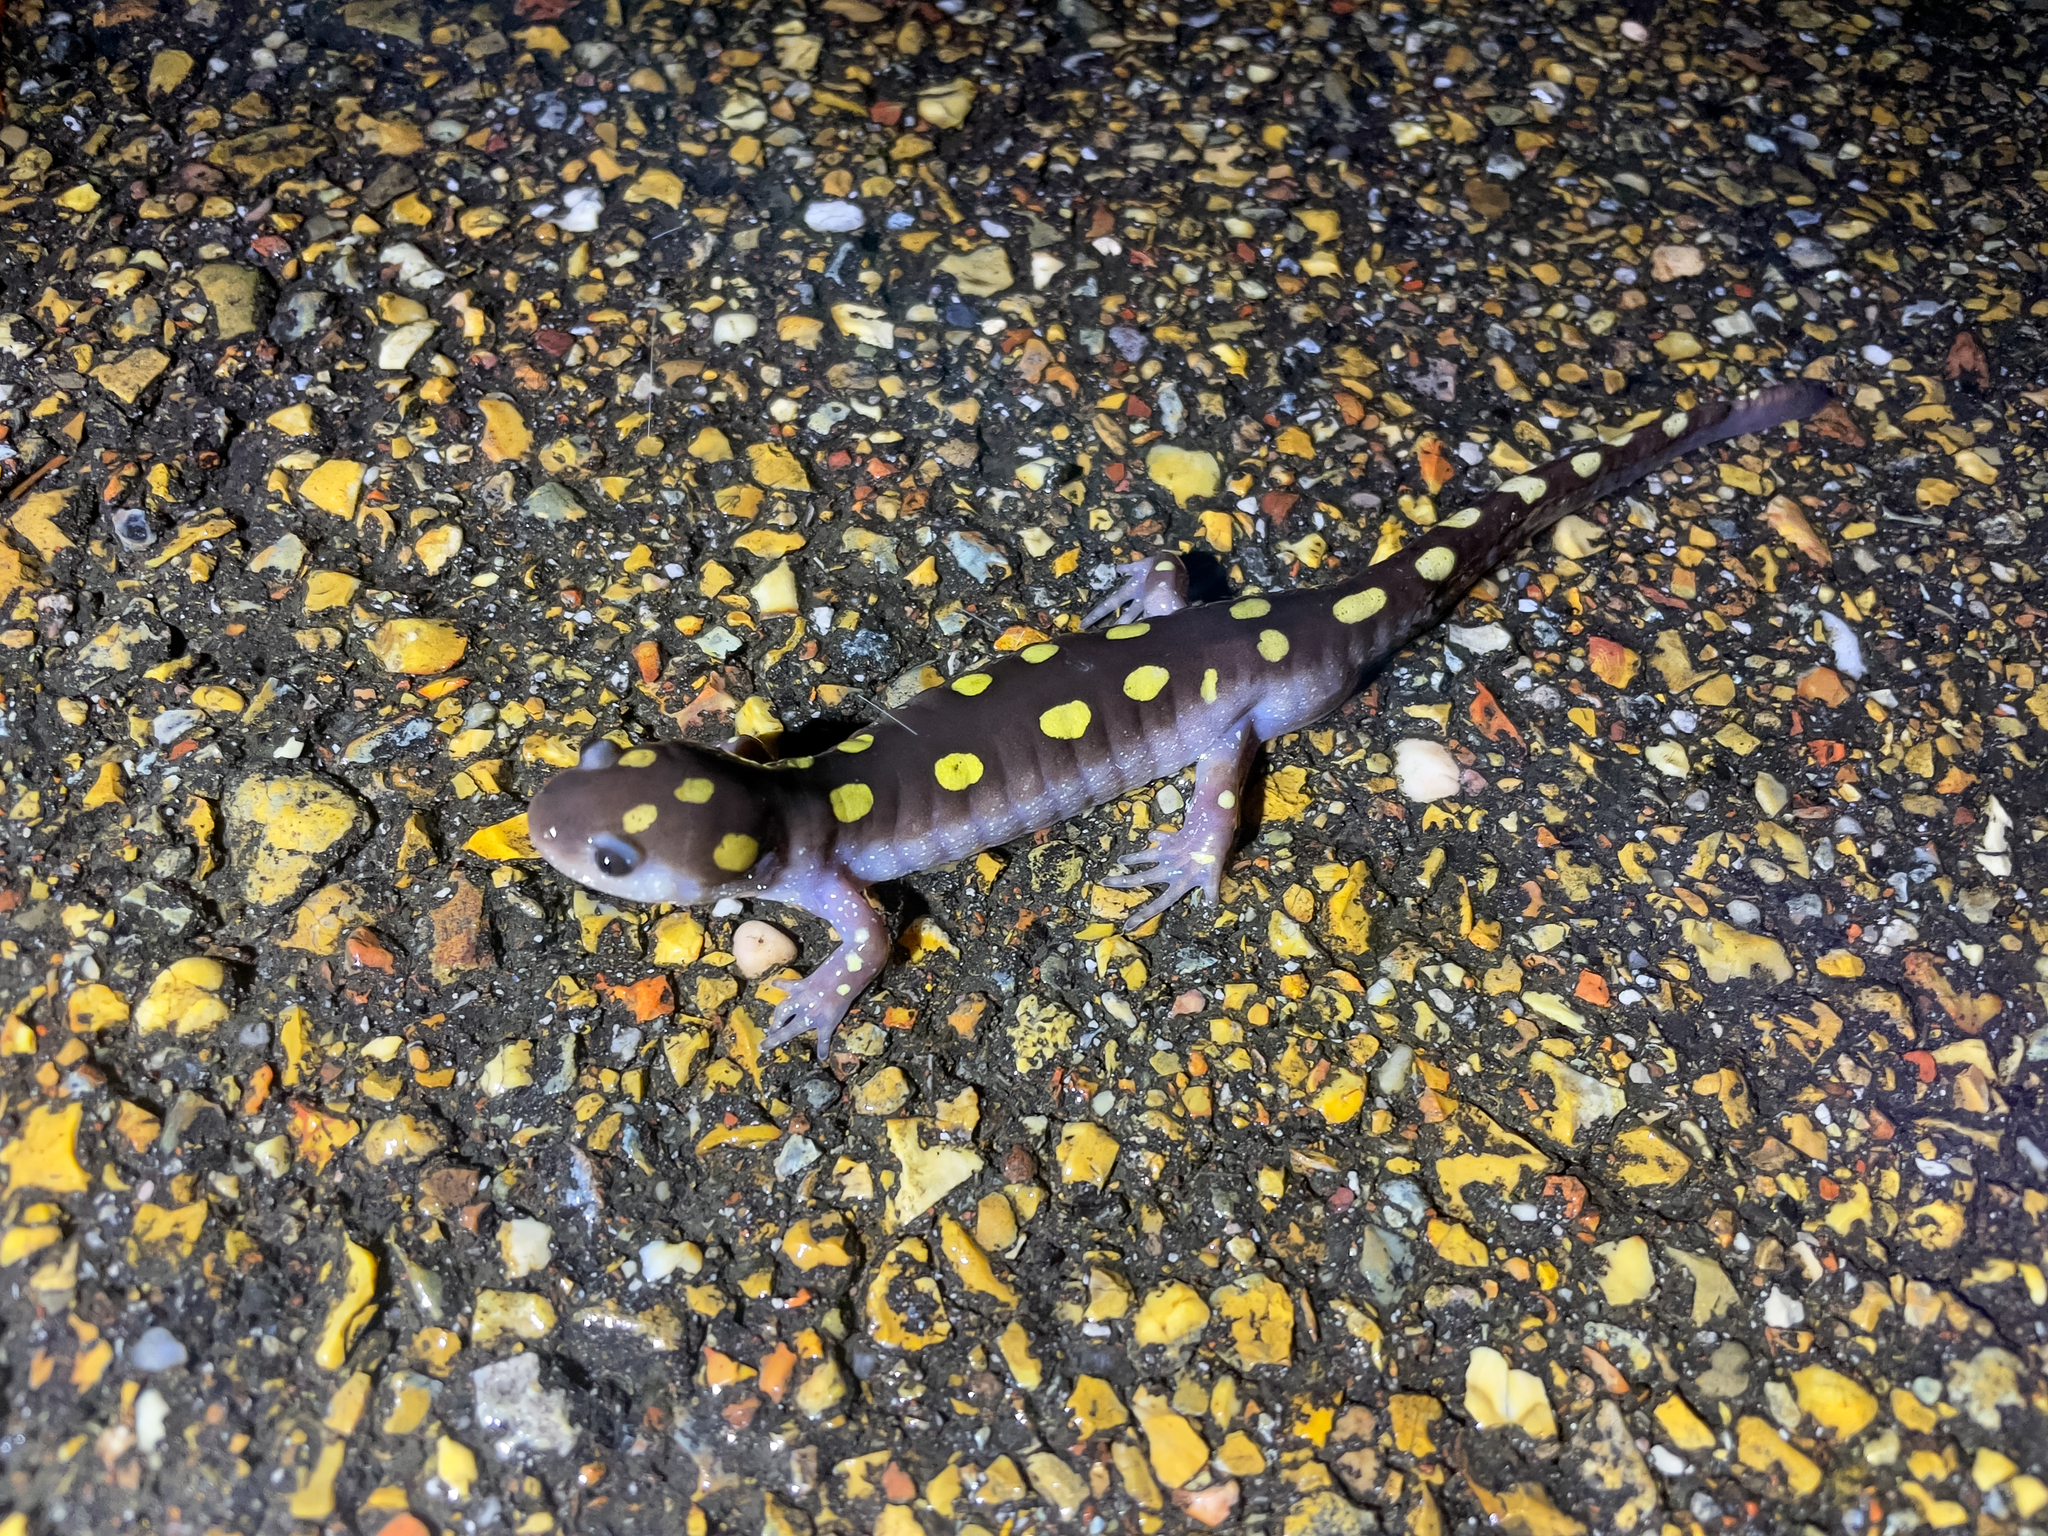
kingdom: Animalia
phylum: Chordata
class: Amphibia
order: Caudata
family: Ambystomatidae
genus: Ambystoma
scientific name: Ambystoma maculatum
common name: Spotted salamander
